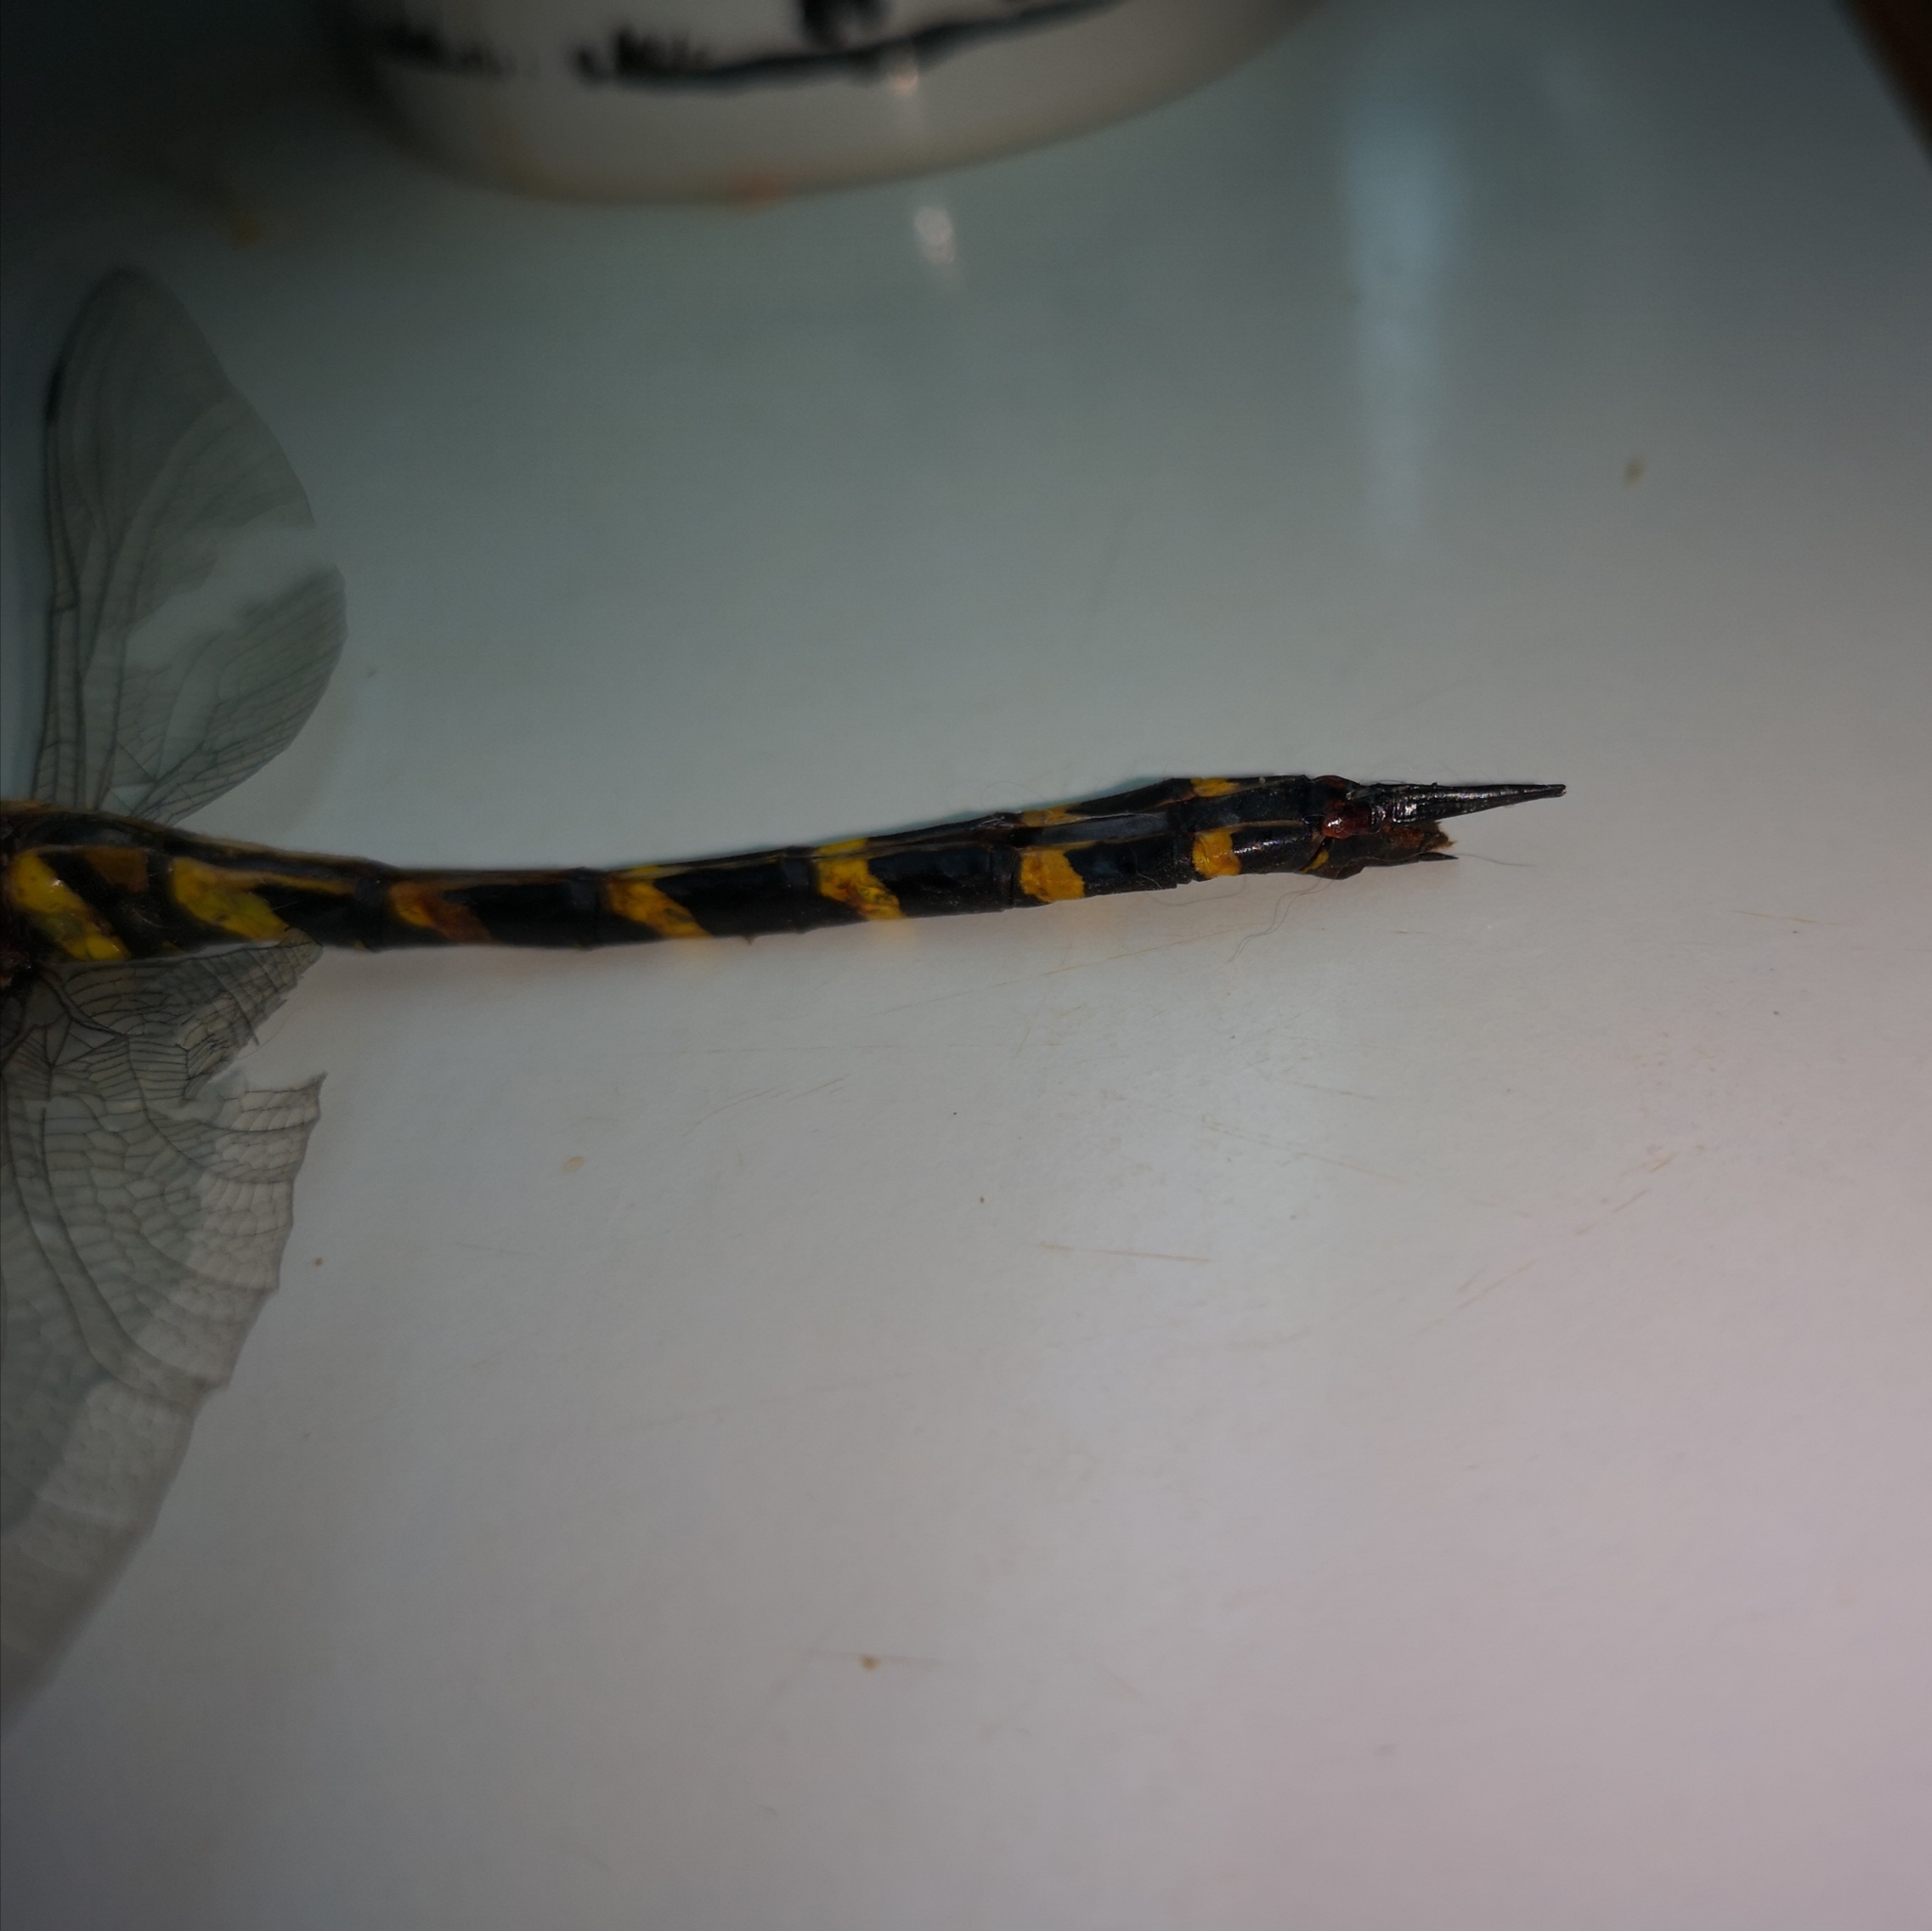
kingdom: Animalia
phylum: Arthropoda
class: Insecta
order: Odonata
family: Cordulegastridae
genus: Cordulegaster
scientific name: Cordulegaster heros
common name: Balkan goldenring
